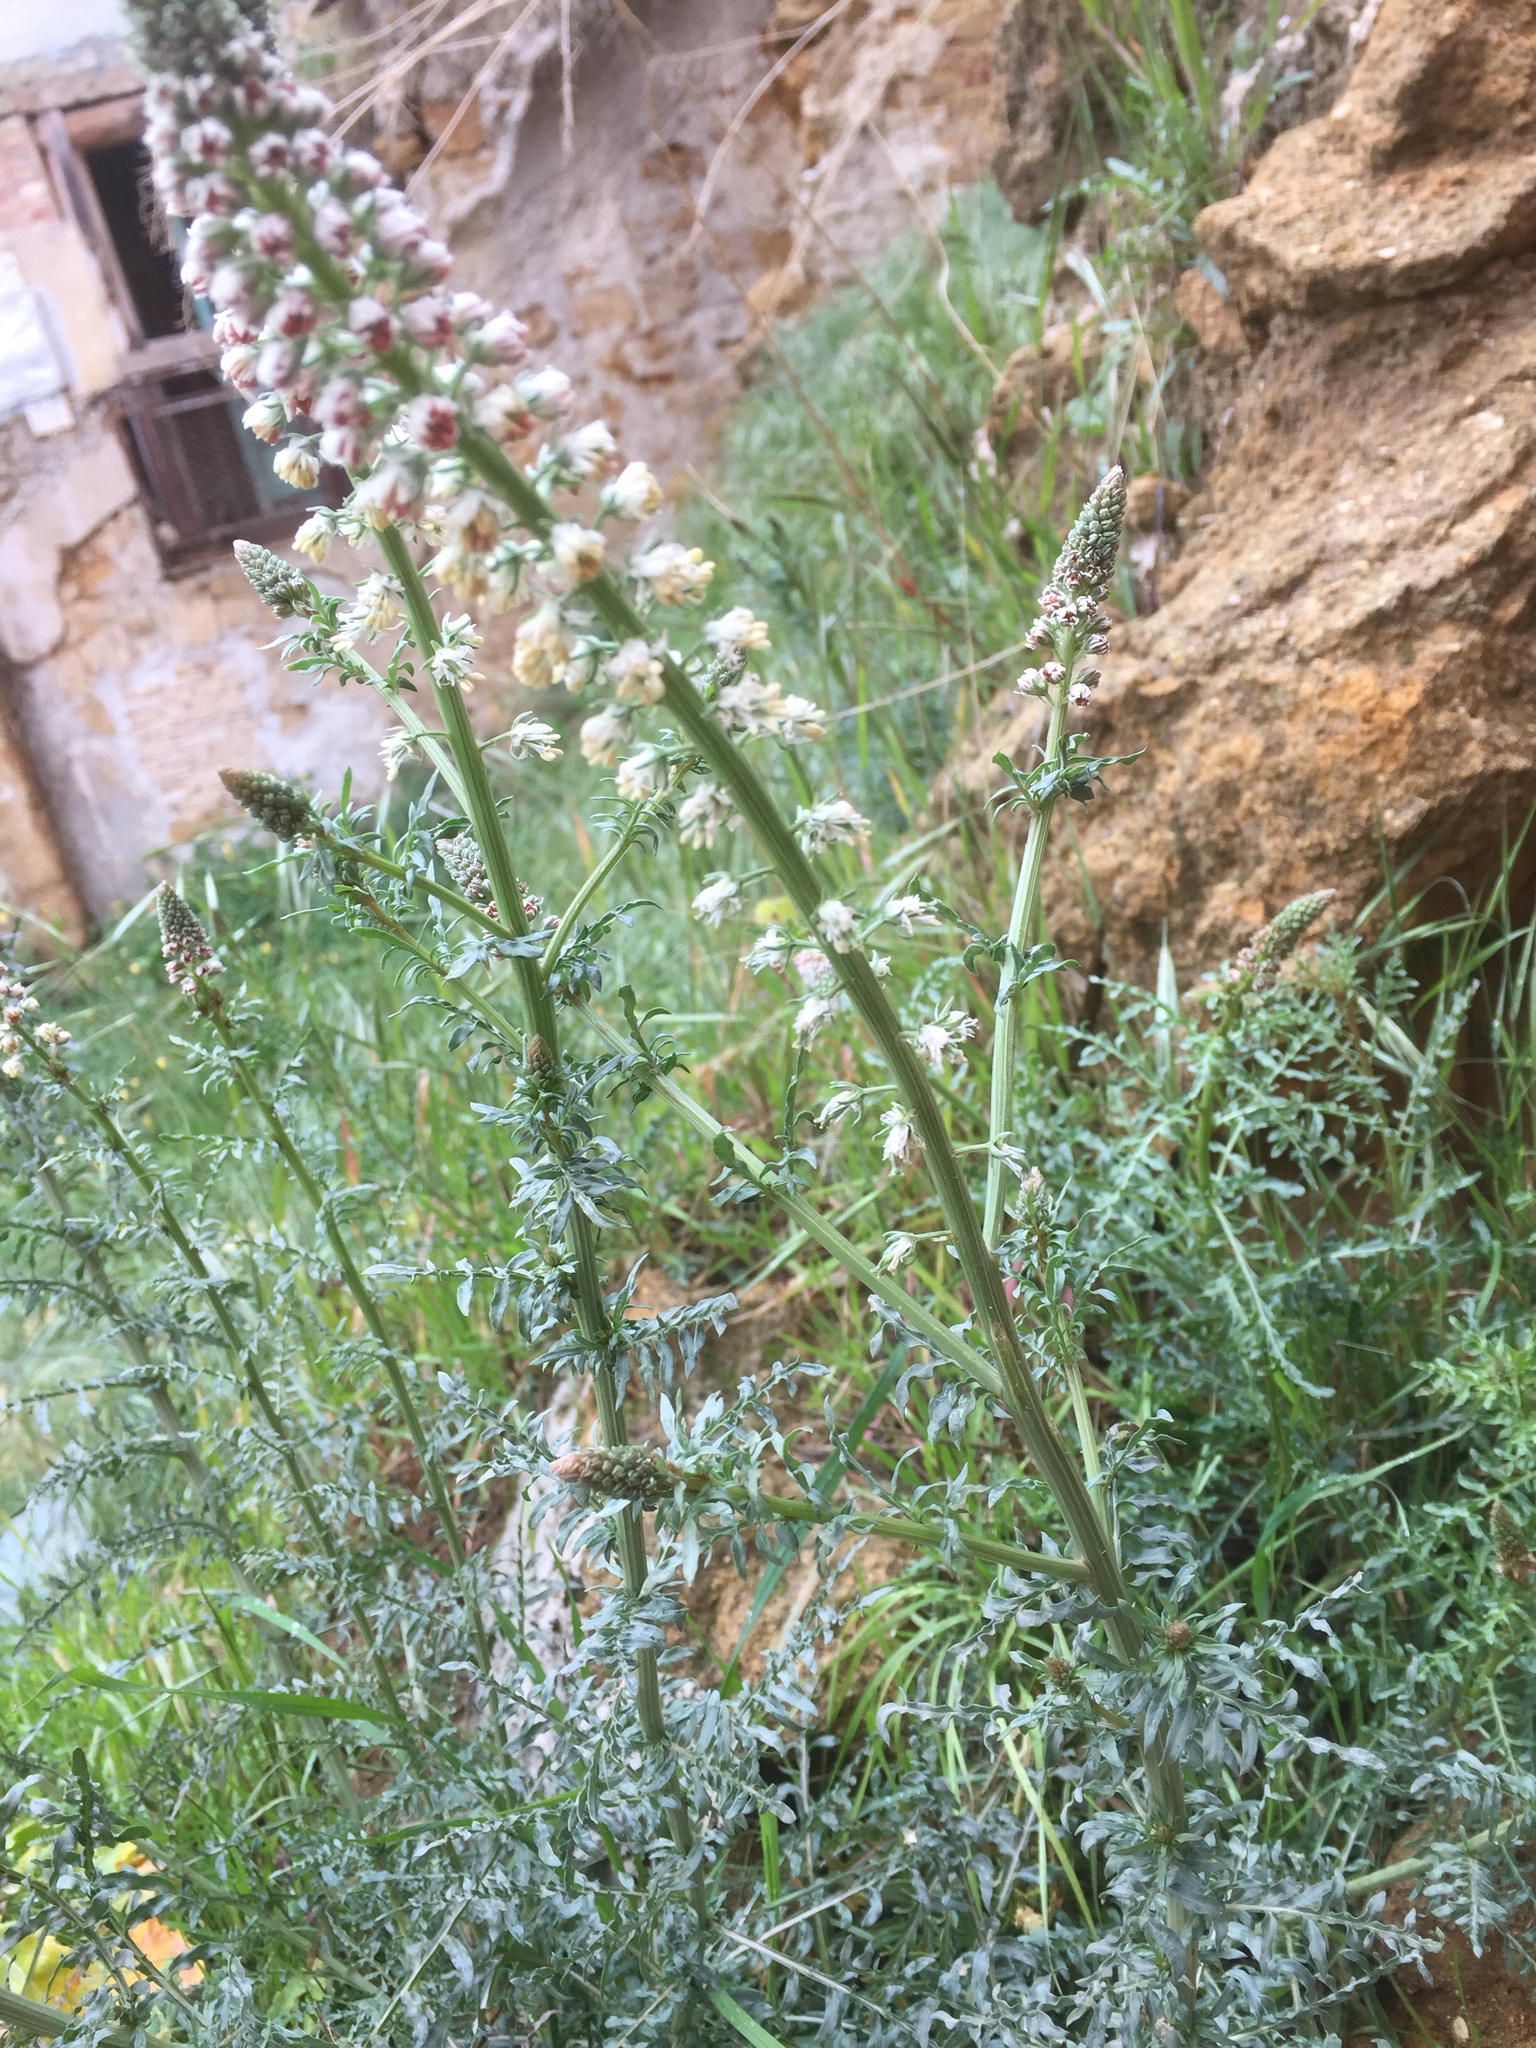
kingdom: Plantae
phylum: Tracheophyta
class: Magnoliopsida
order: Brassicales
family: Resedaceae
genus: Reseda
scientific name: Reseda alba
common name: White mignonette
